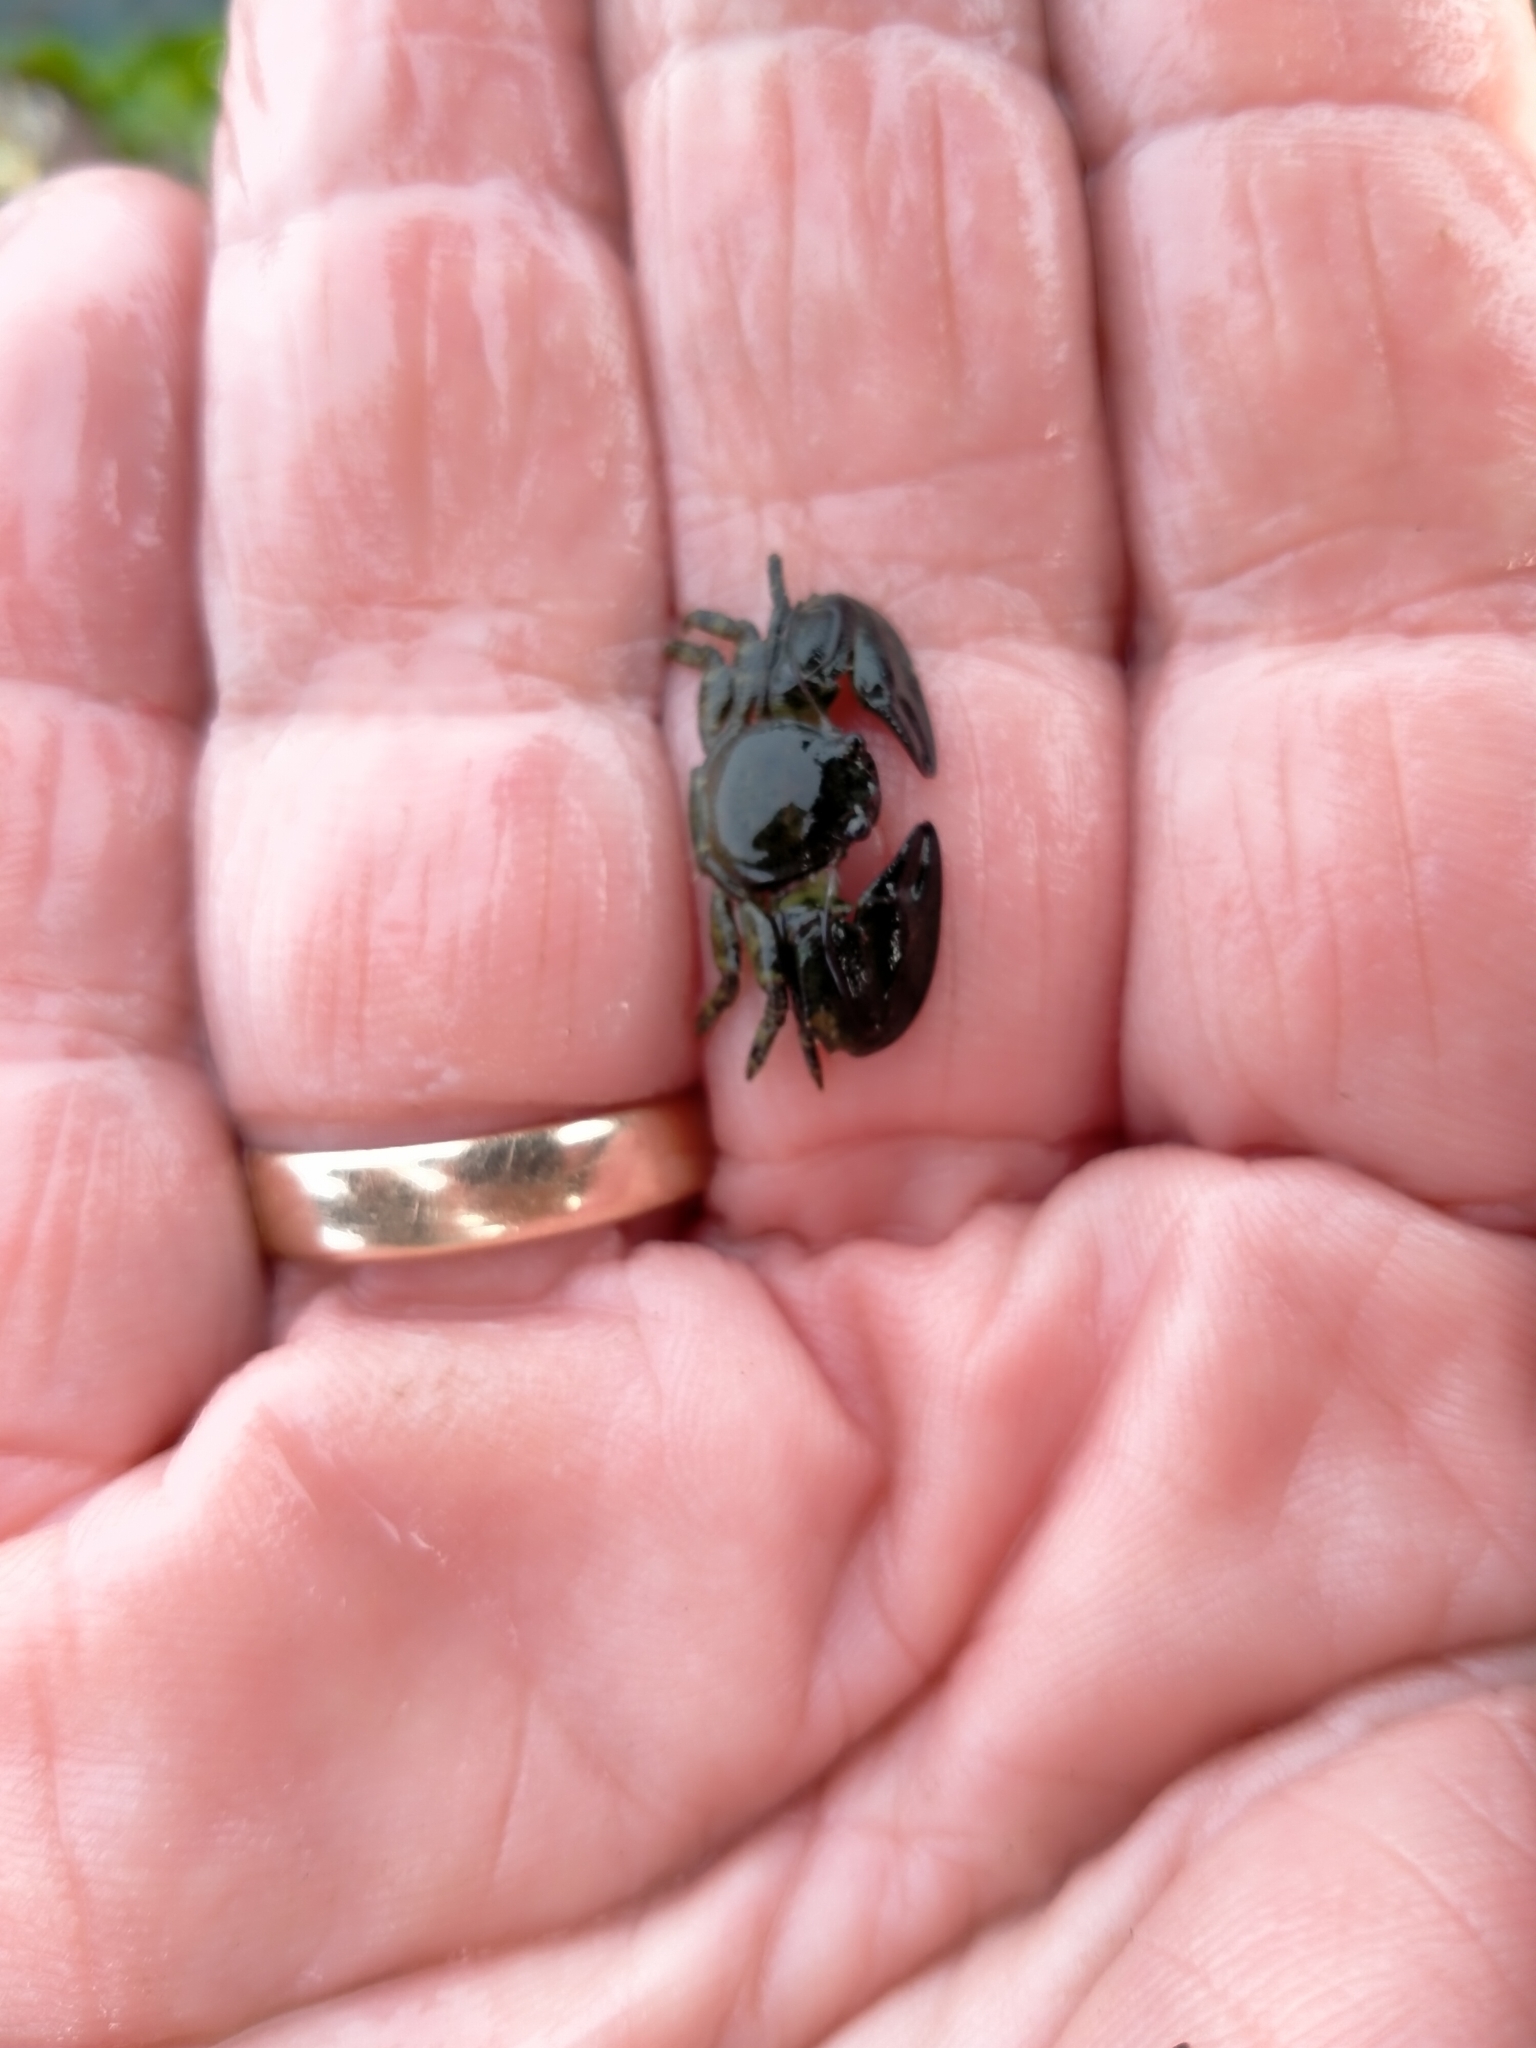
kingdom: Animalia
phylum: Arthropoda
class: Malacostraca
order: Decapoda
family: Porcellanidae
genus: Petrolisthes
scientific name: Petrolisthes elongatus
